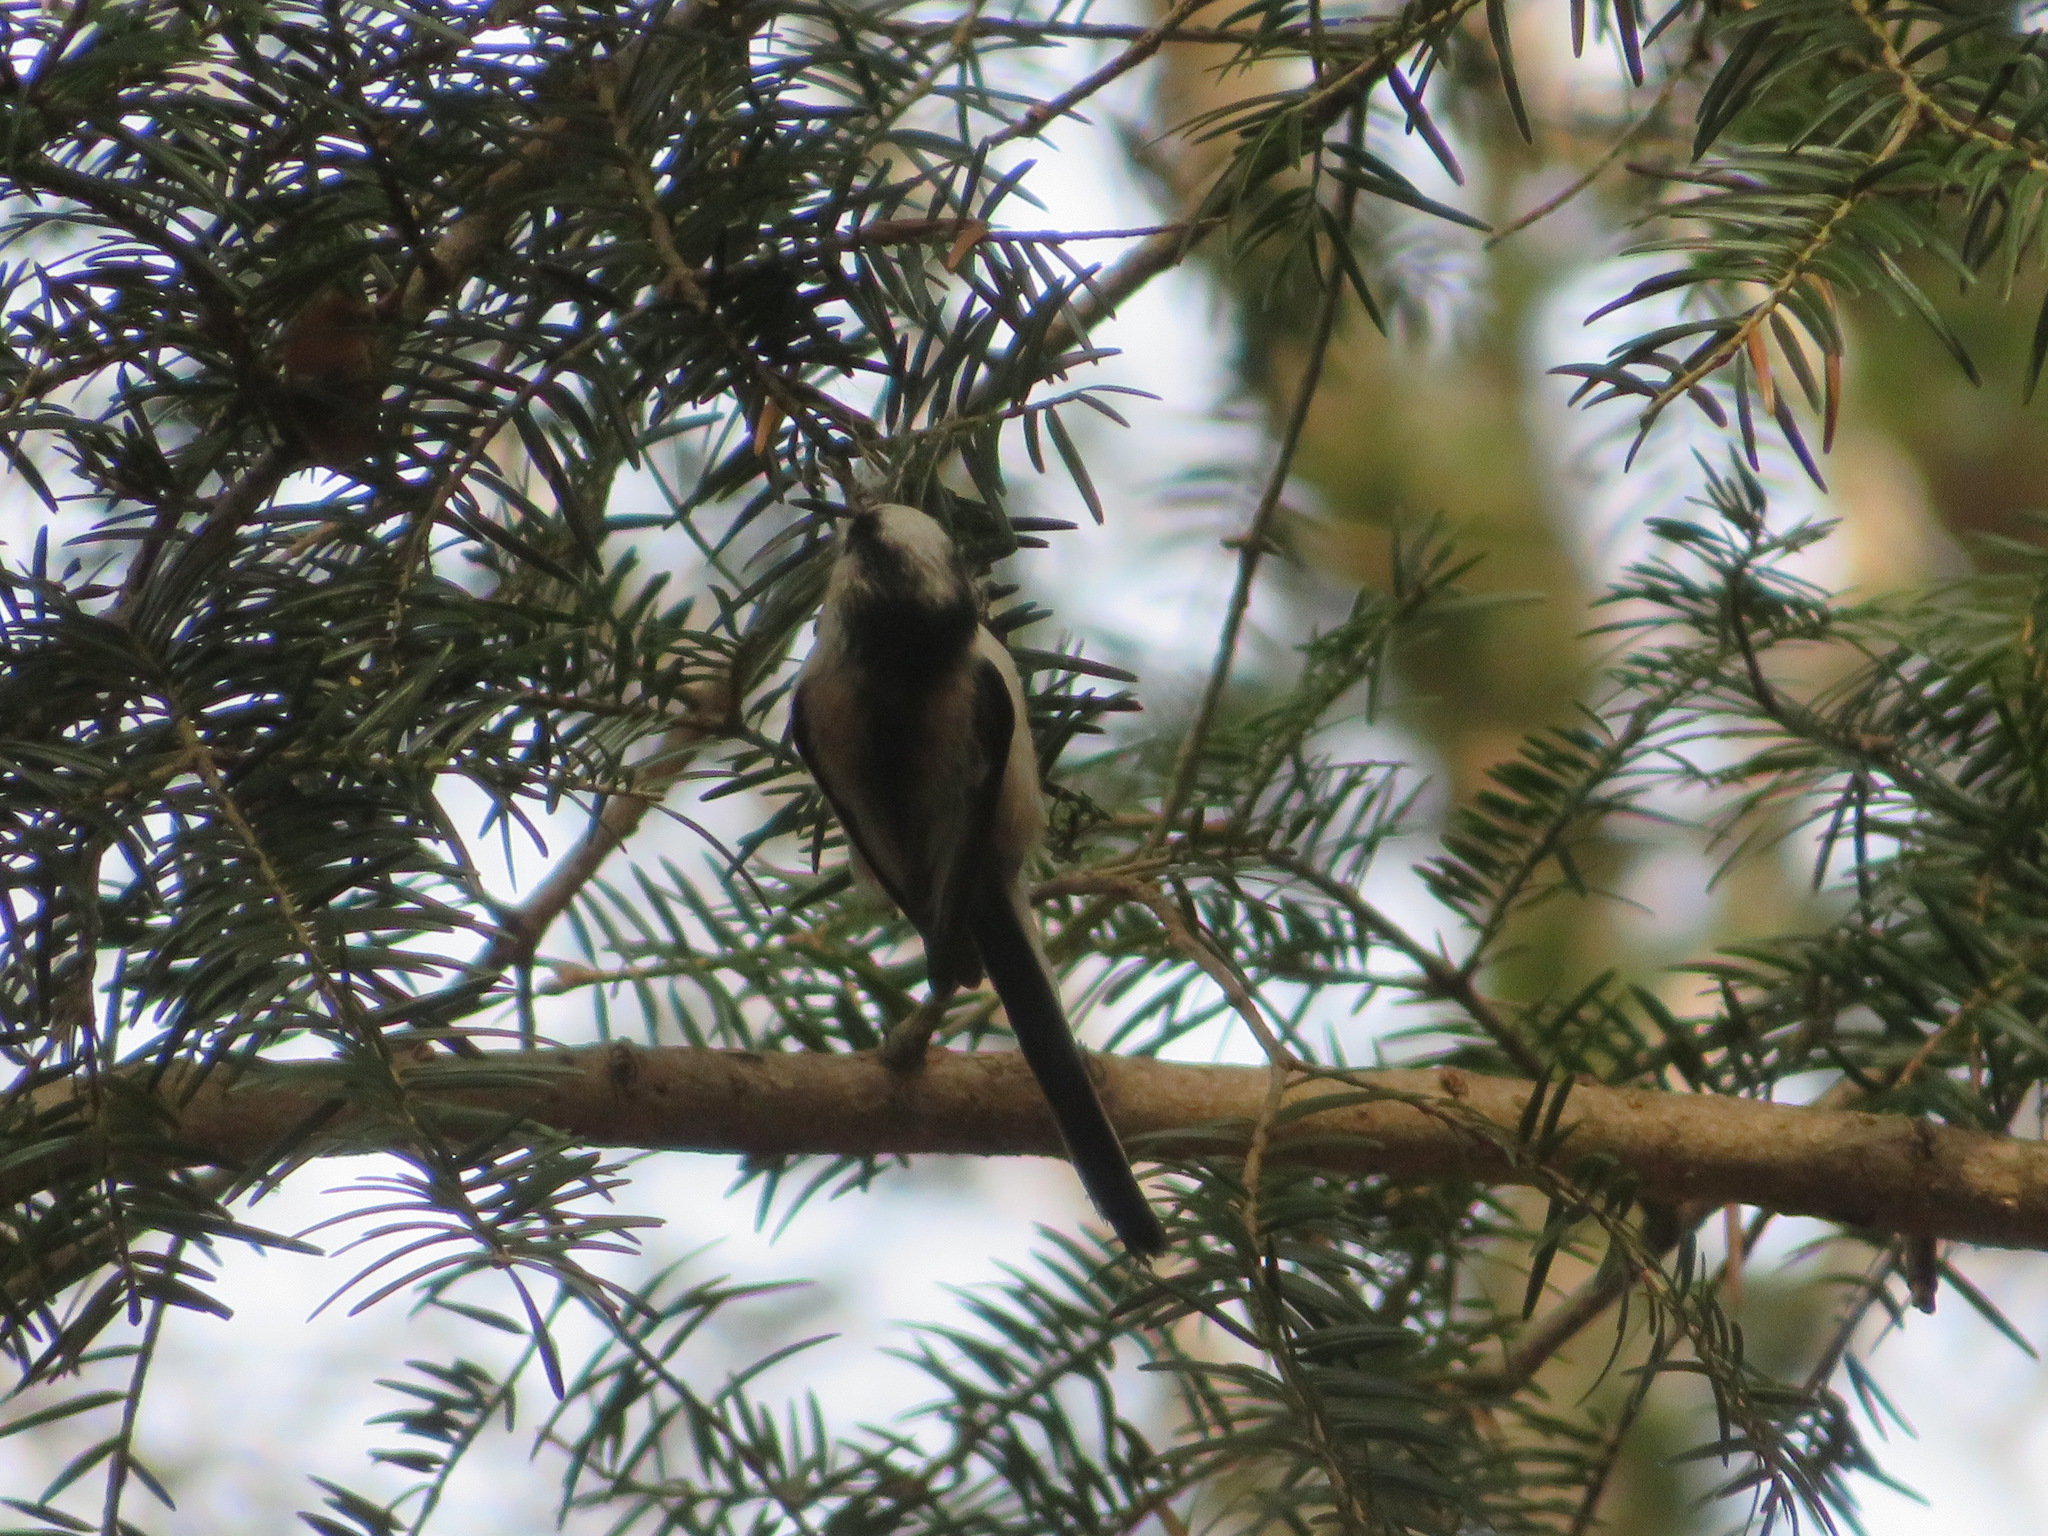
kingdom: Animalia
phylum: Chordata
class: Aves
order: Passeriformes
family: Aegithalidae
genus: Aegithalos
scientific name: Aegithalos caudatus
